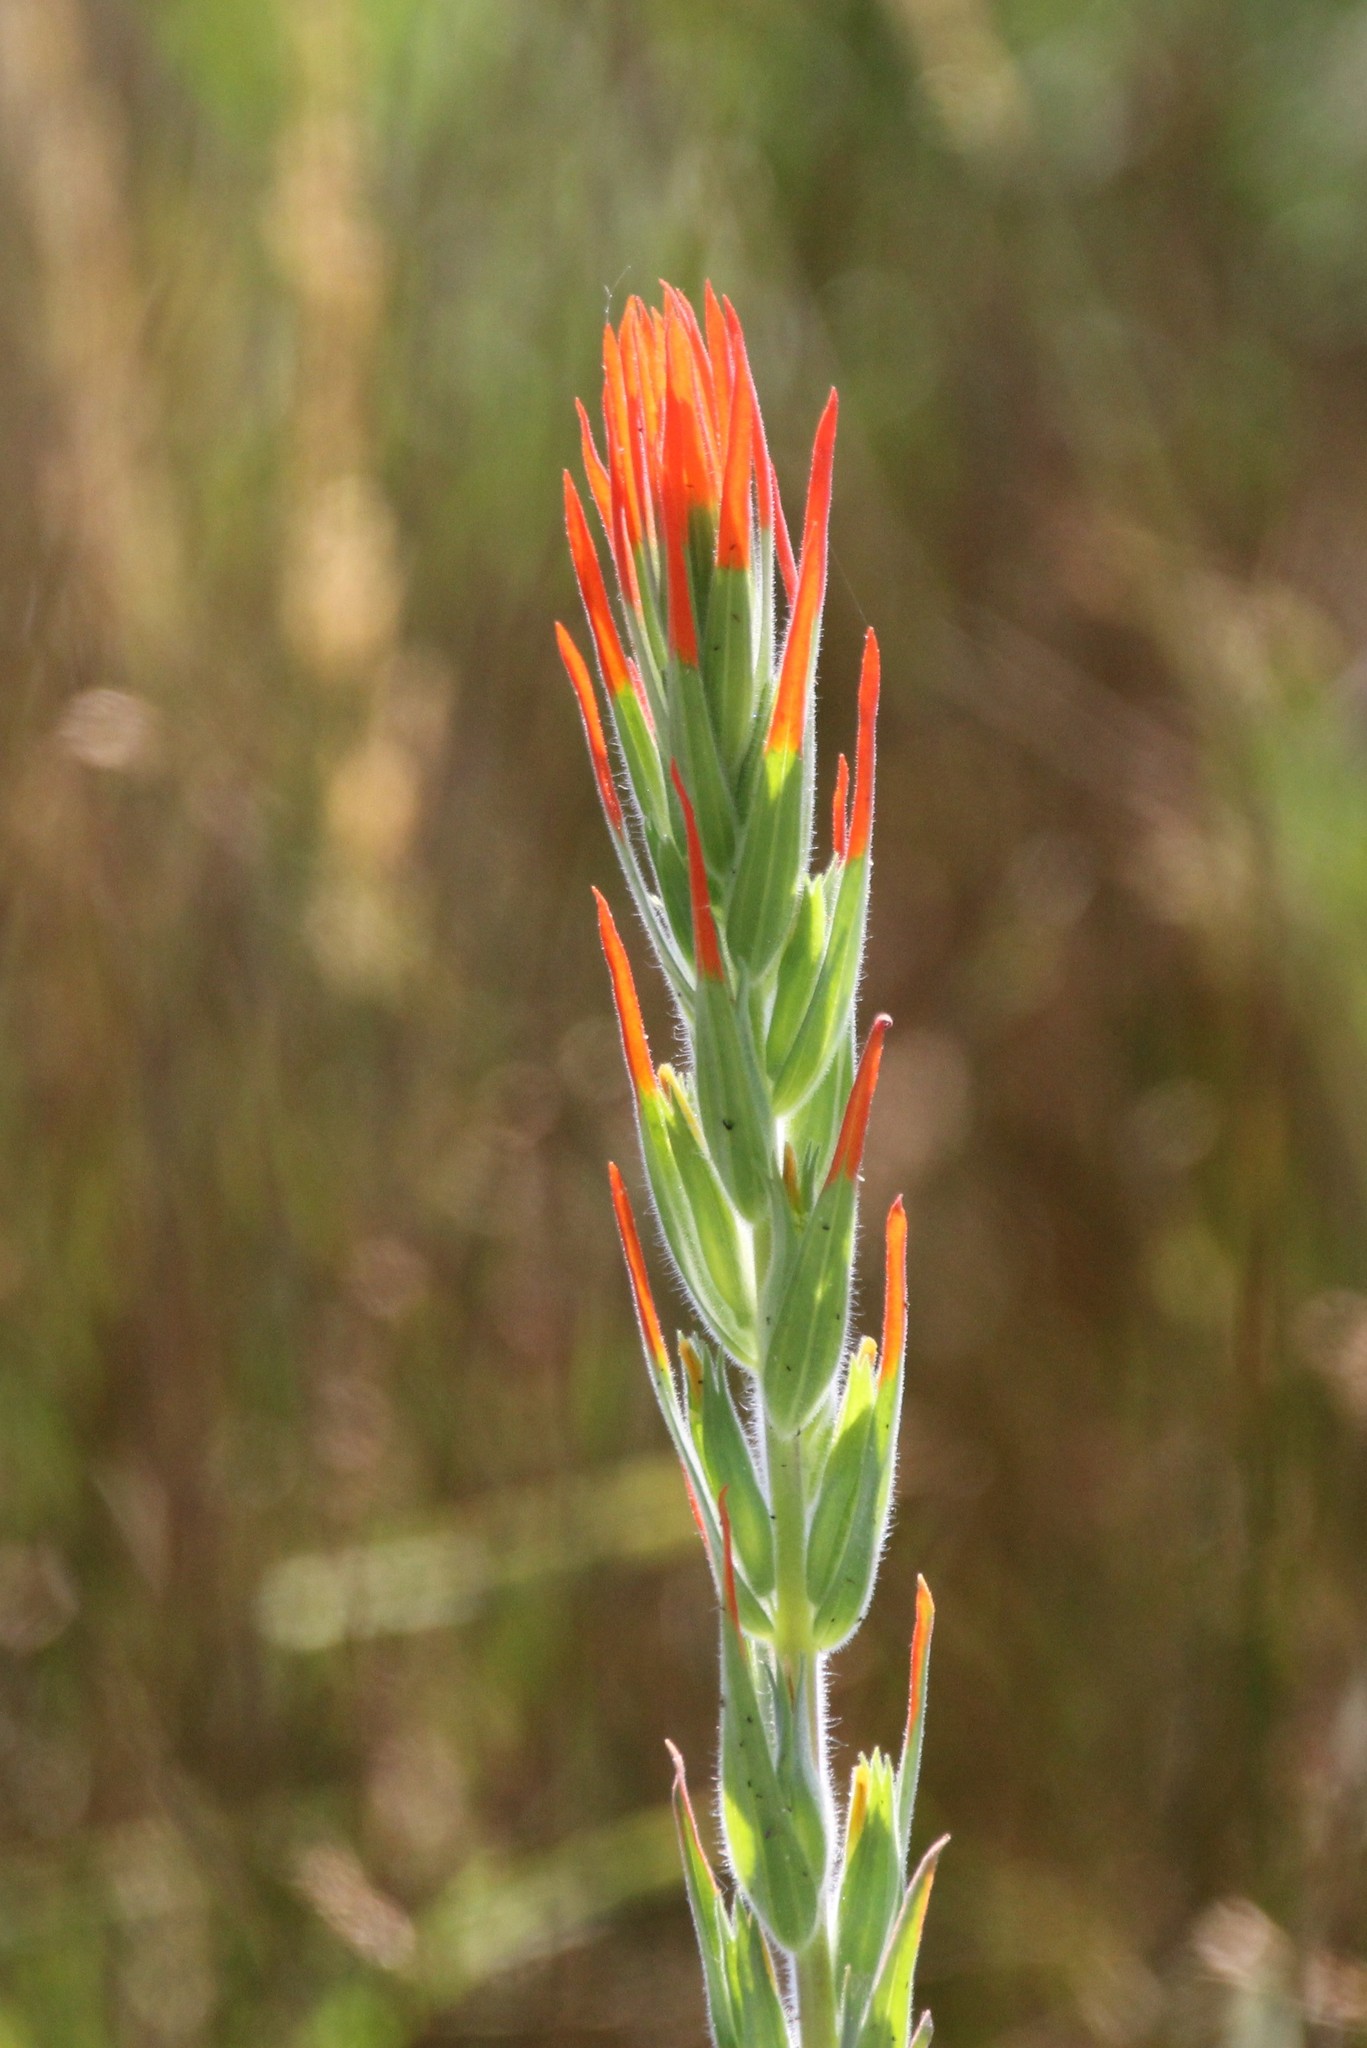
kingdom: Plantae
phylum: Tracheophyta
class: Magnoliopsida
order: Lamiales
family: Orobanchaceae
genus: Castilleja
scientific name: Castilleja minor
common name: Seep paintbrush
